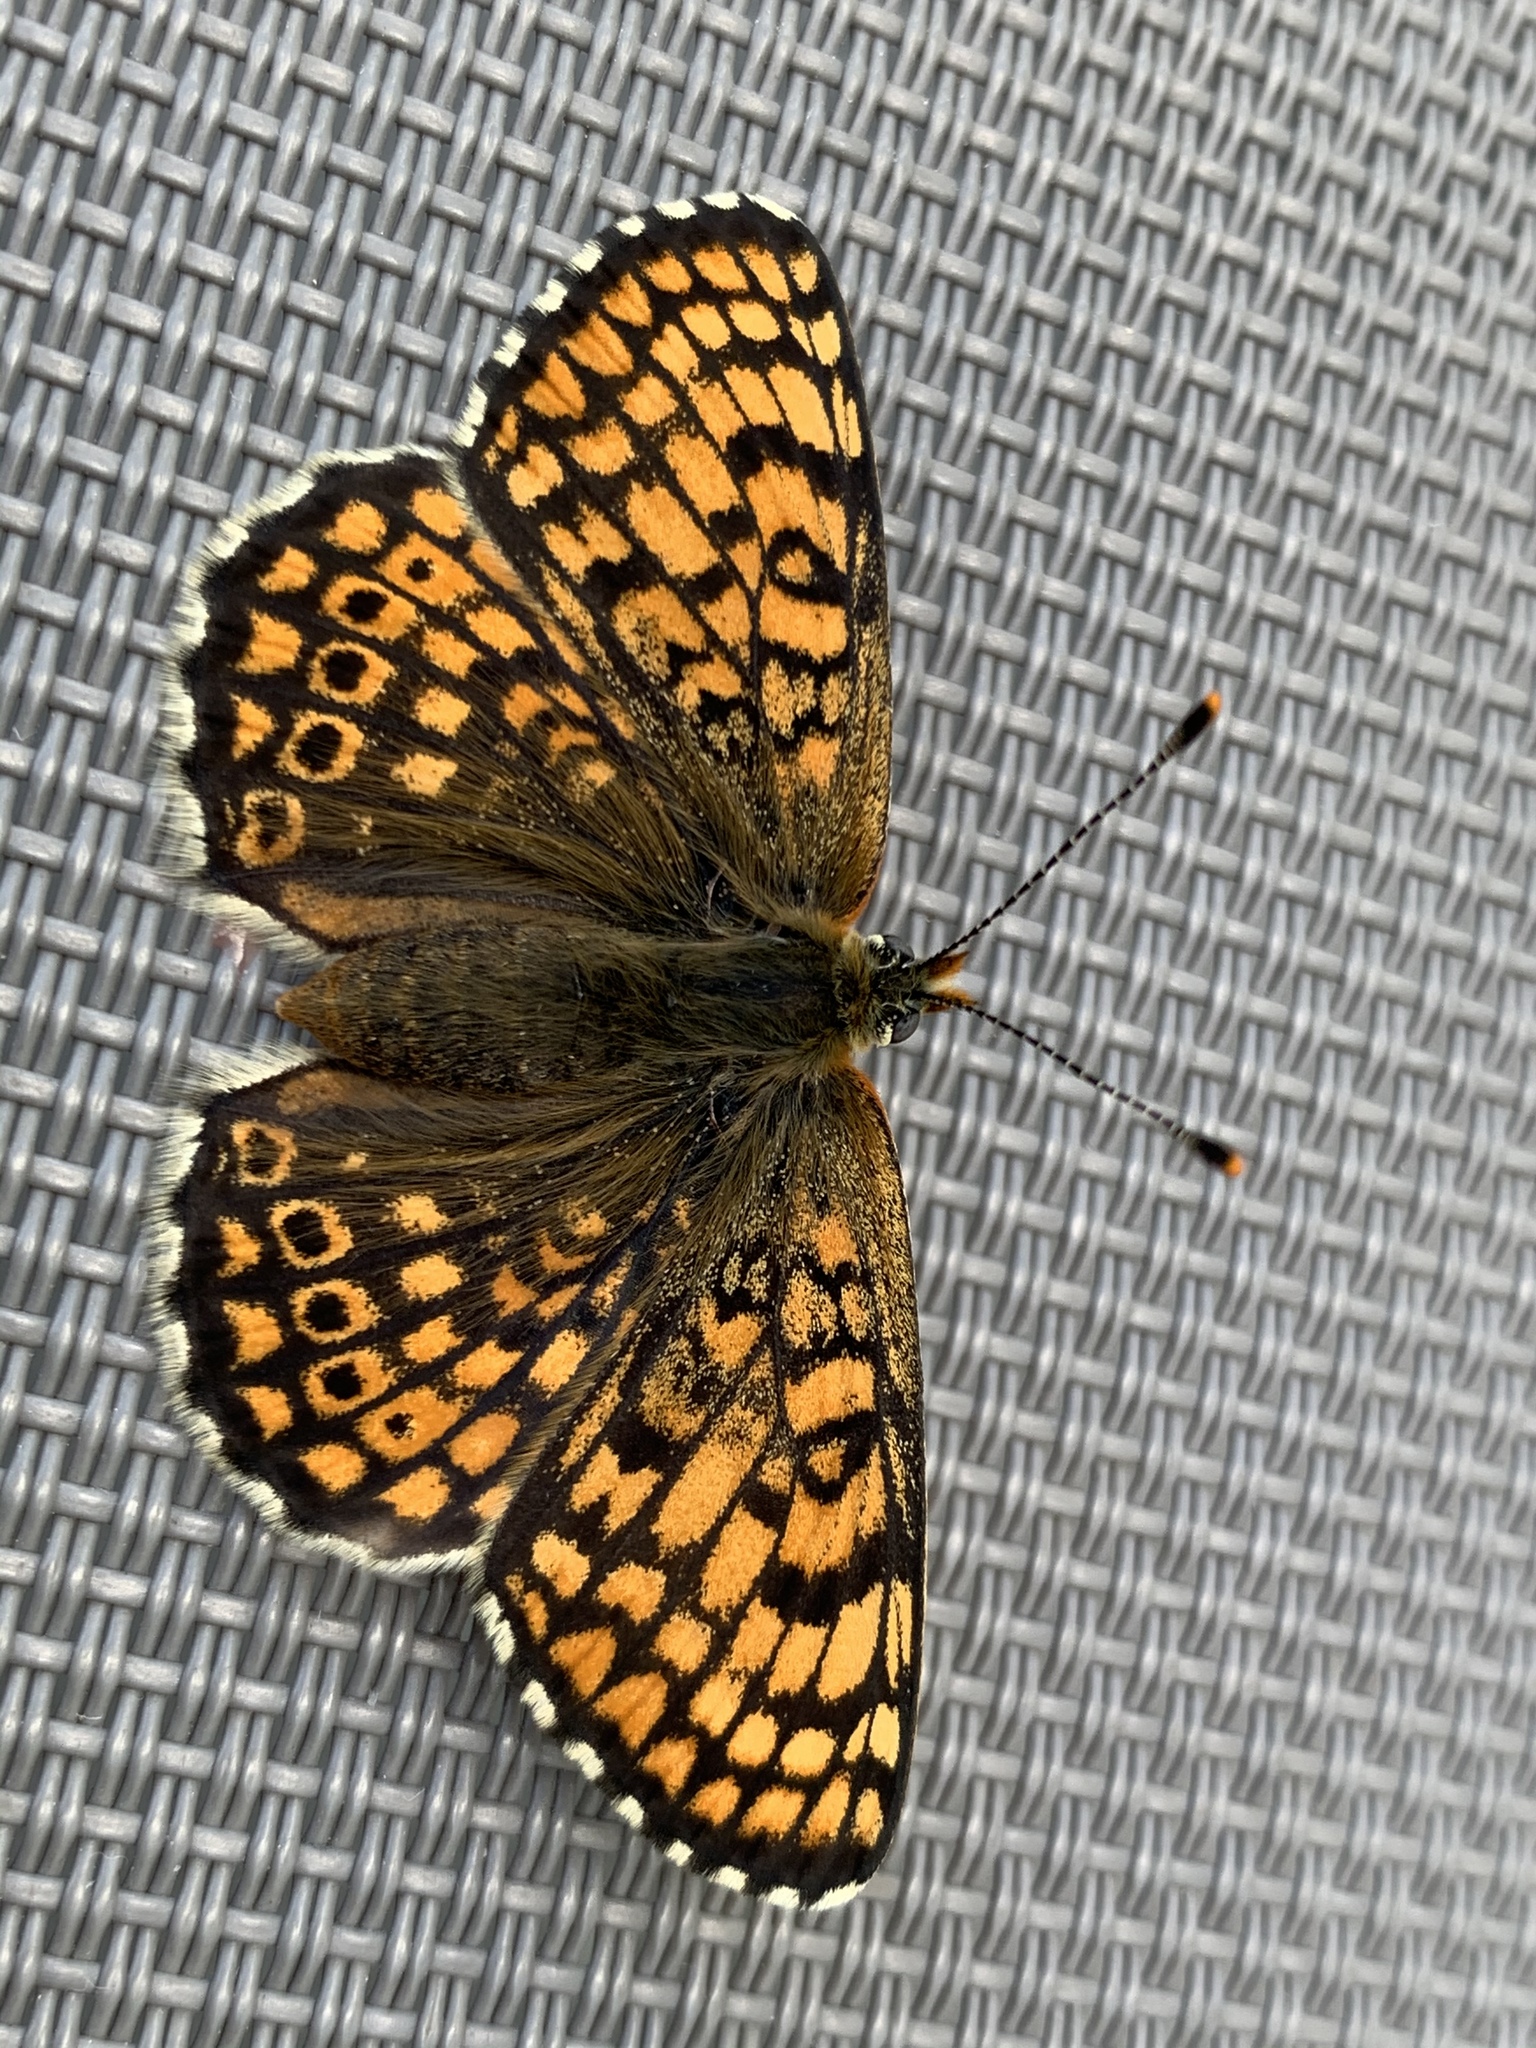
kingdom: Animalia
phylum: Arthropoda
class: Insecta
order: Lepidoptera
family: Nymphalidae
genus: Melitaea
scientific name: Melitaea cinxia
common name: Glanville fritillary
